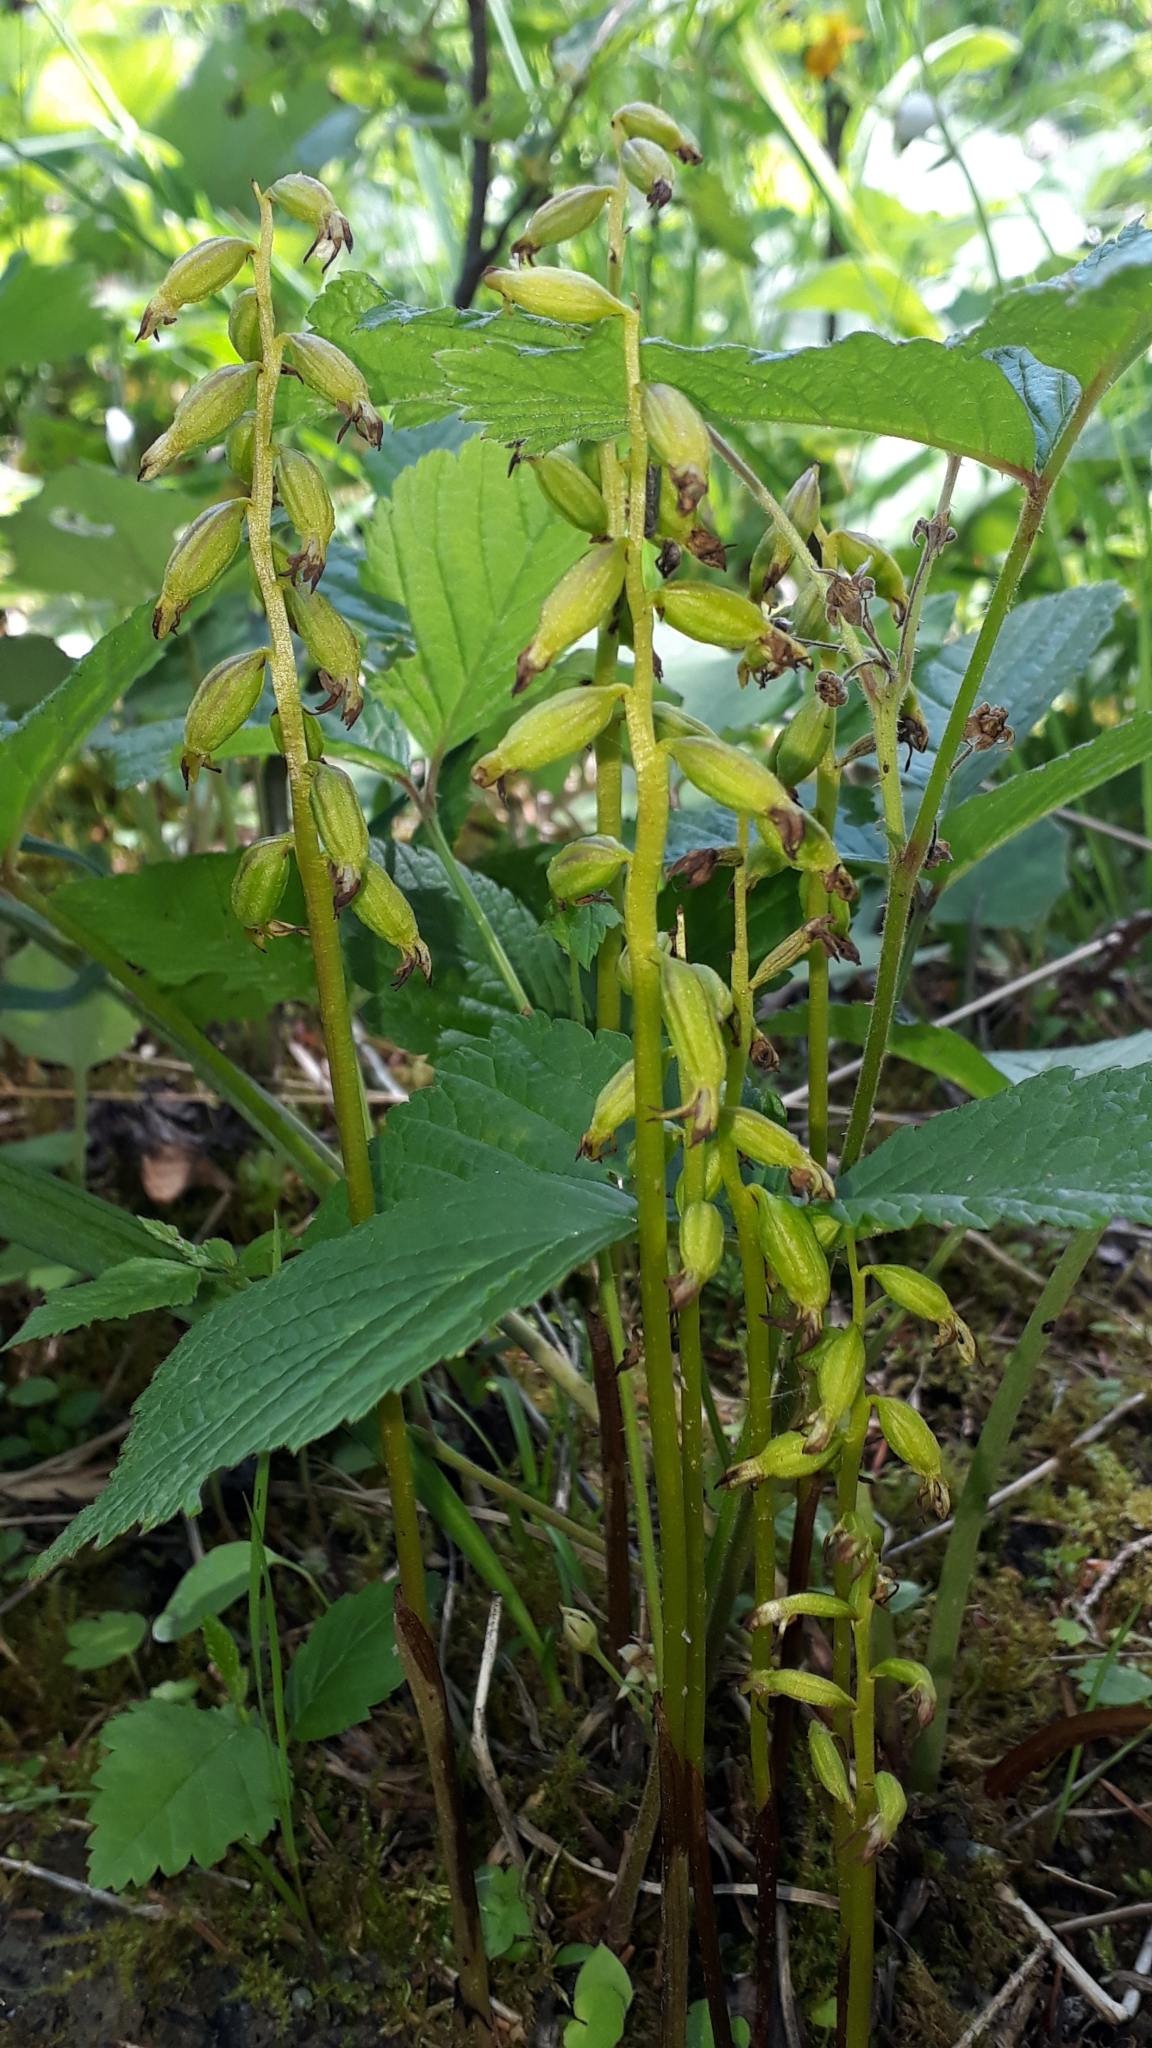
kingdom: Plantae
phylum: Tracheophyta
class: Liliopsida
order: Asparagales
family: Orchidaceae
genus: Corallorhiza
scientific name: Corallorhiza trifida
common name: Yellow coralroot
